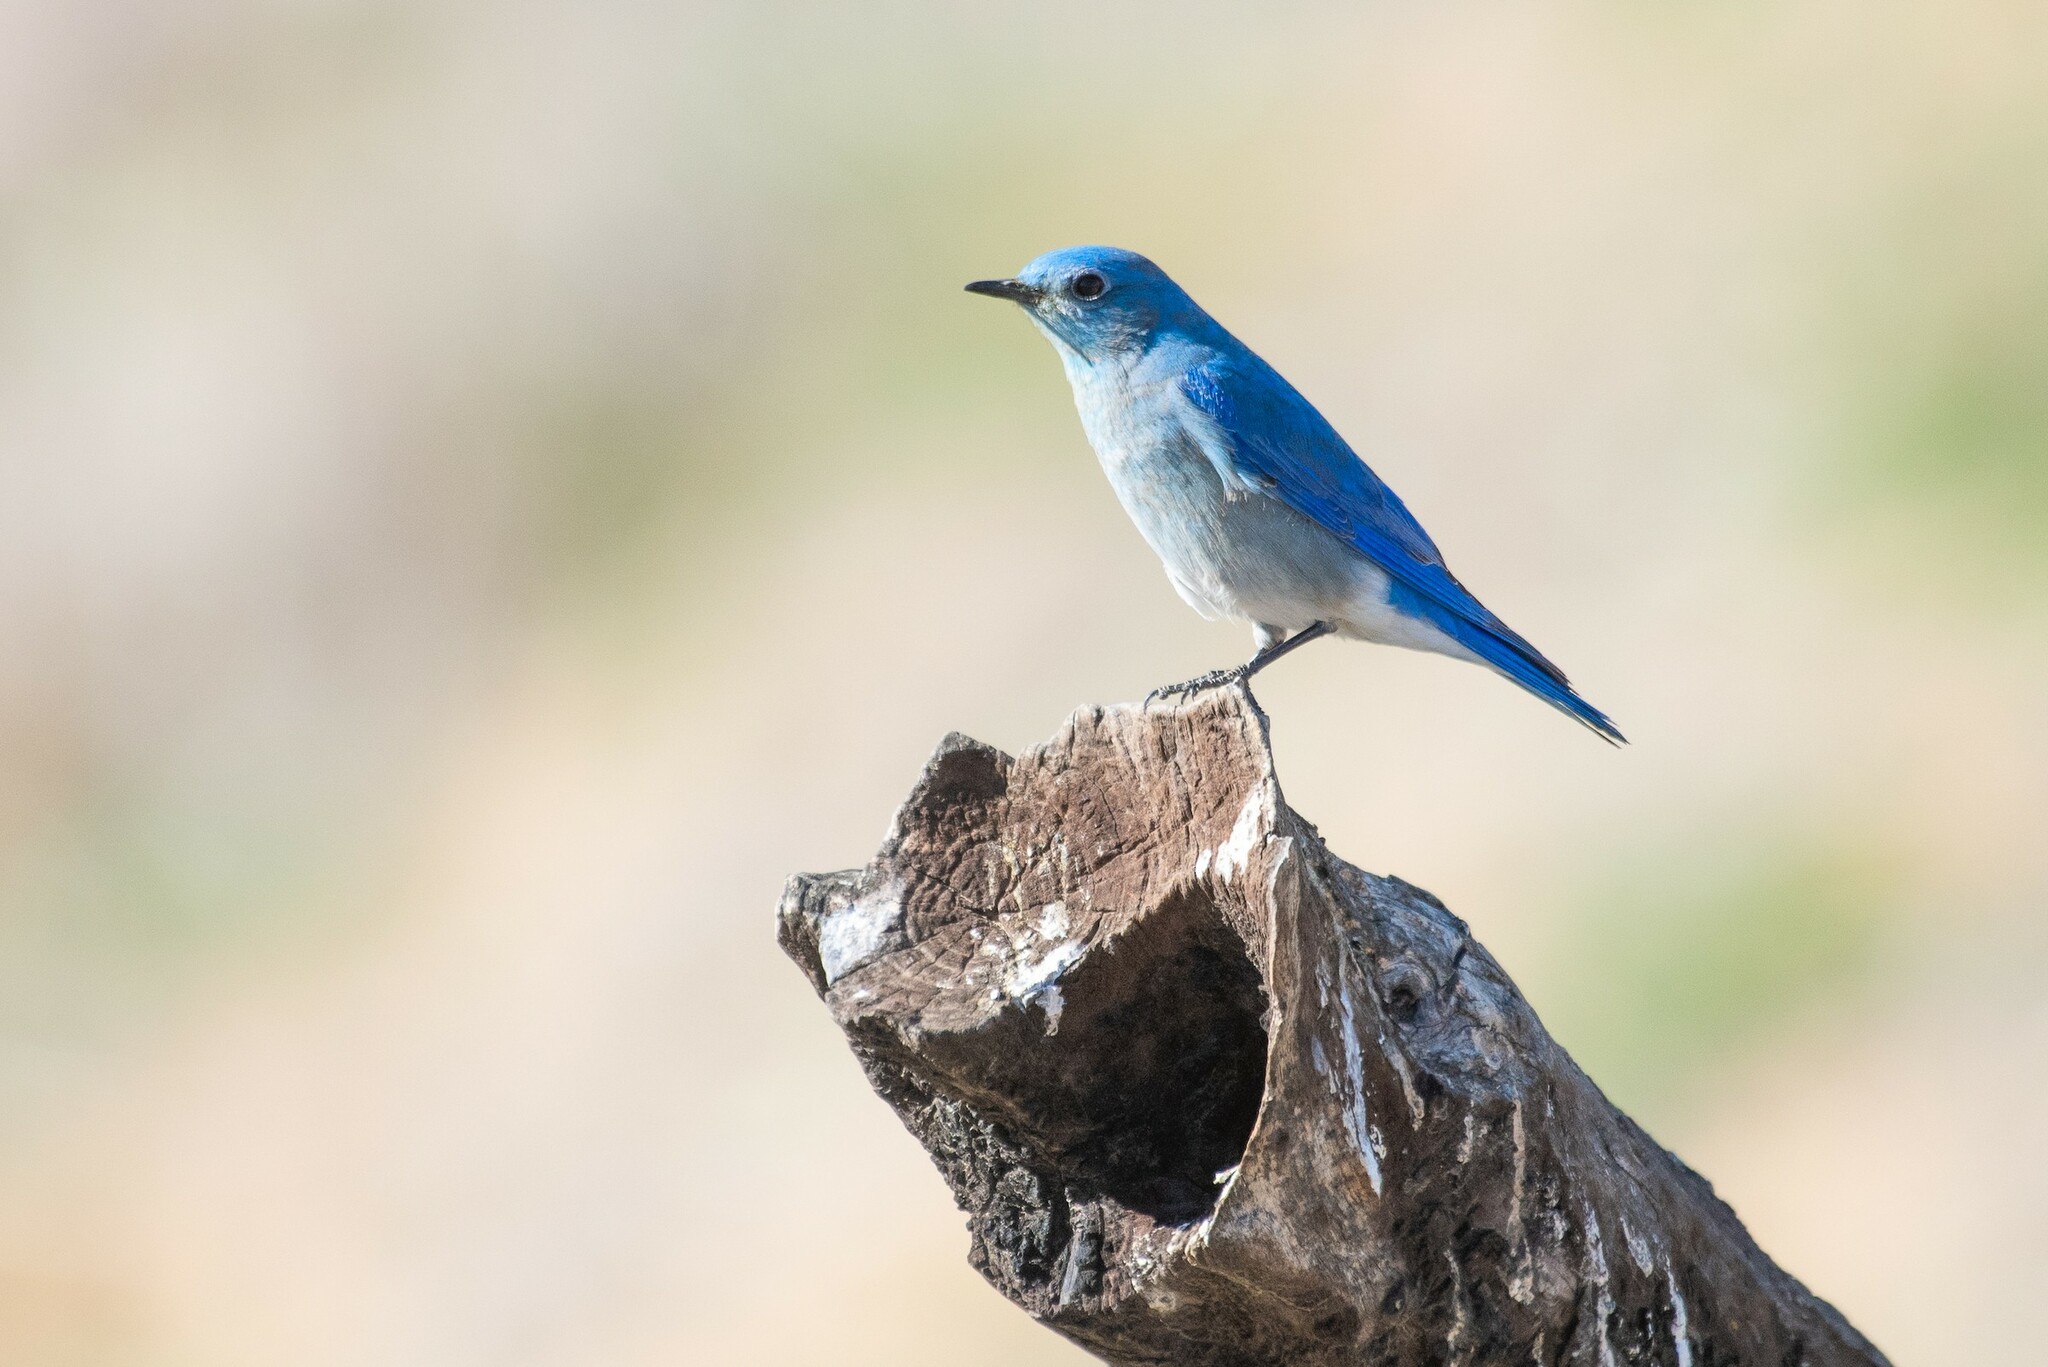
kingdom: Animalia
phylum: Chordata
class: Aves
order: Passeriformes
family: Turdidae
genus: Sialia
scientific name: Sialia currucoides
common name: Mountain bluebird
